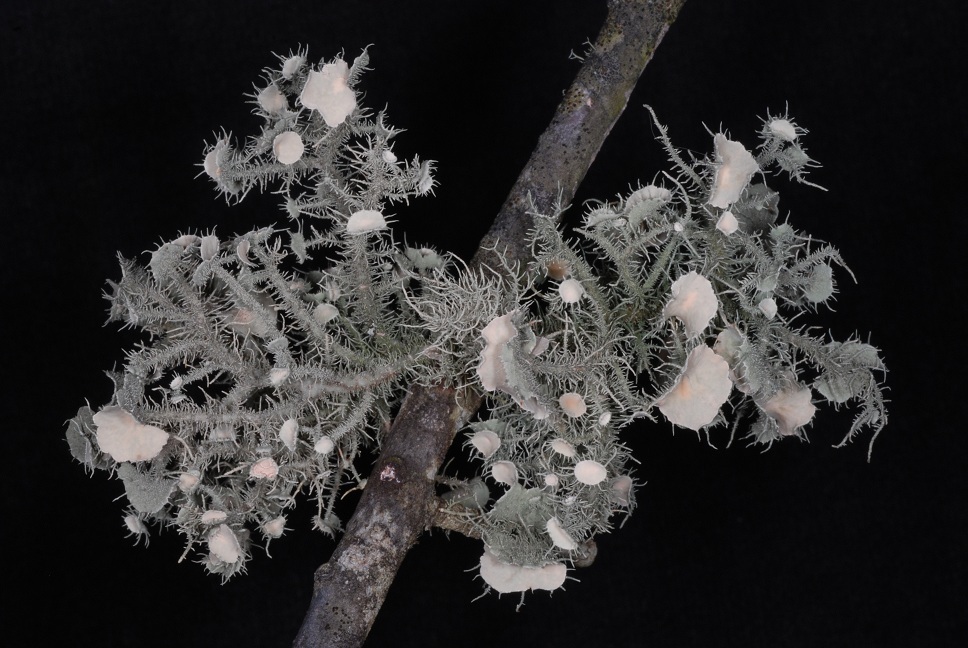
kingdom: Fungi
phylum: Ascomycota
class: Lecanoromycetes
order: Lecanorales
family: Parmeliaceae
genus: Usnea
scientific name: Usnea strigosa
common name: Bushy beard lichen
